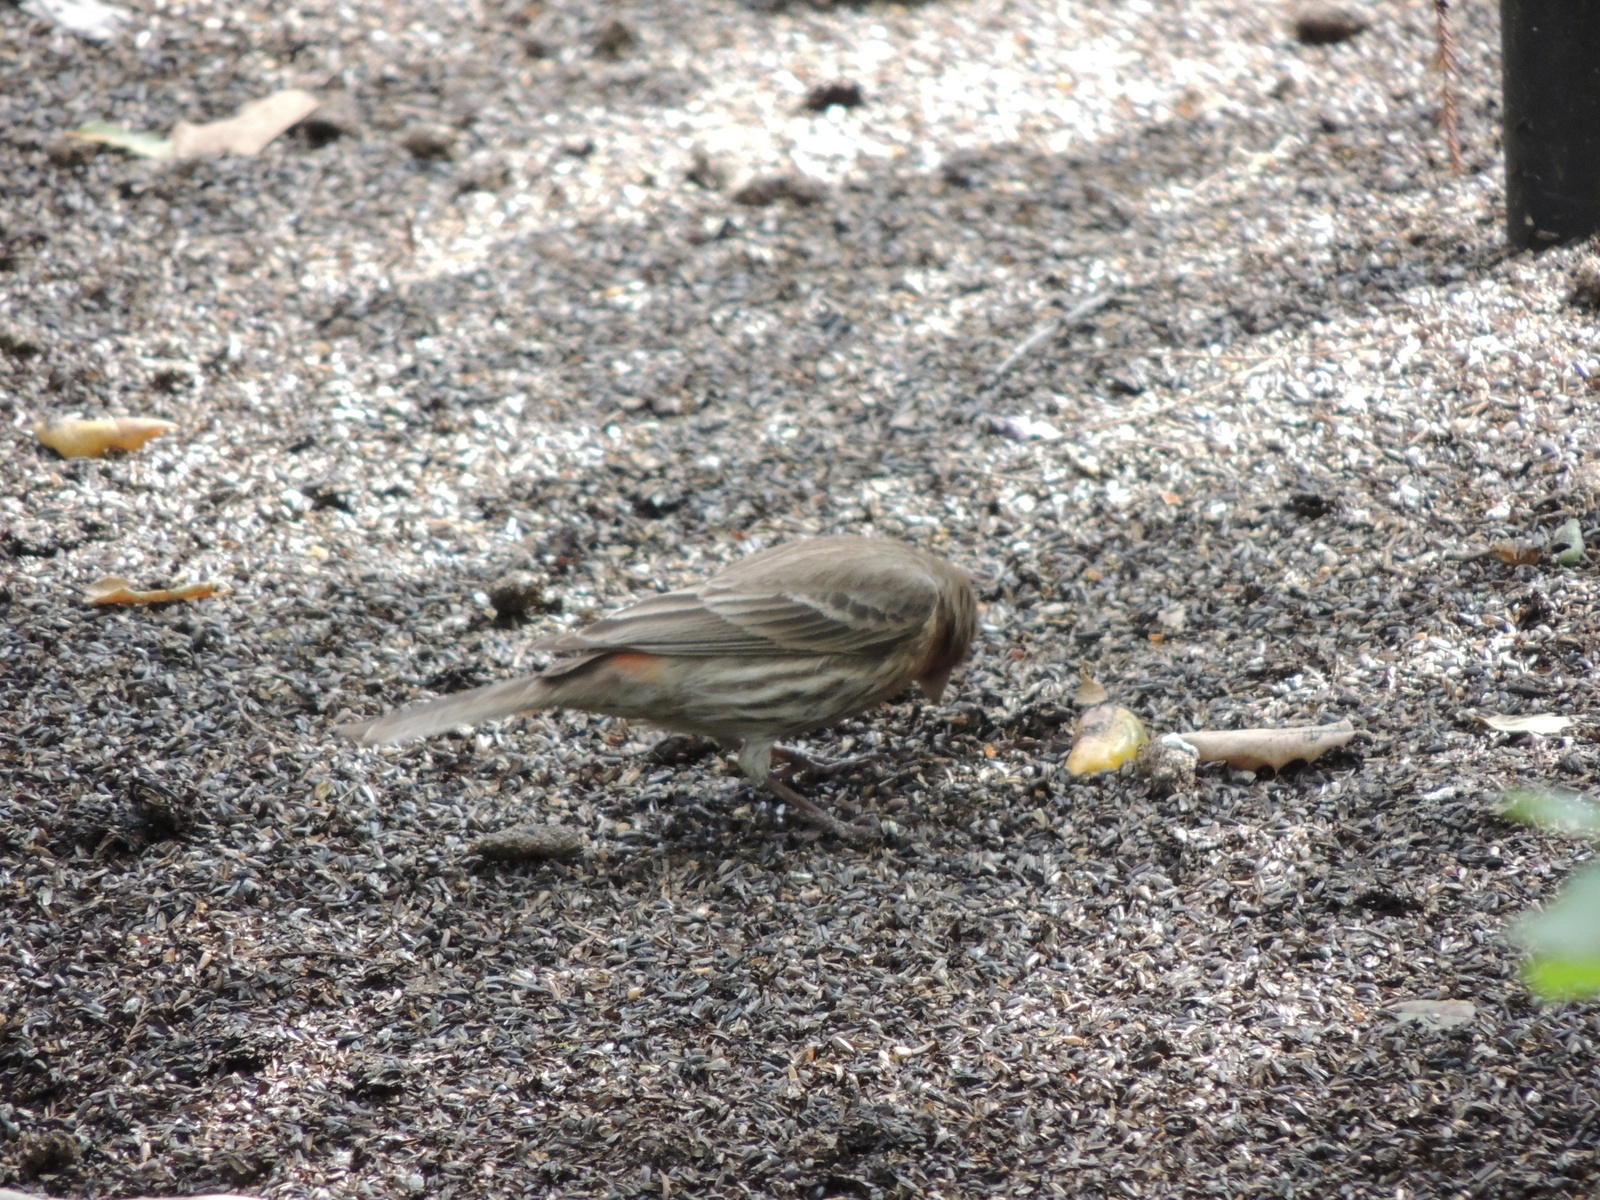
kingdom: Animalia
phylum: Chordata
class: Aves
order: Passeriformes
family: Fringillidae
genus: Haemorhous
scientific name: Haemorhous mexicanus
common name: House finch
